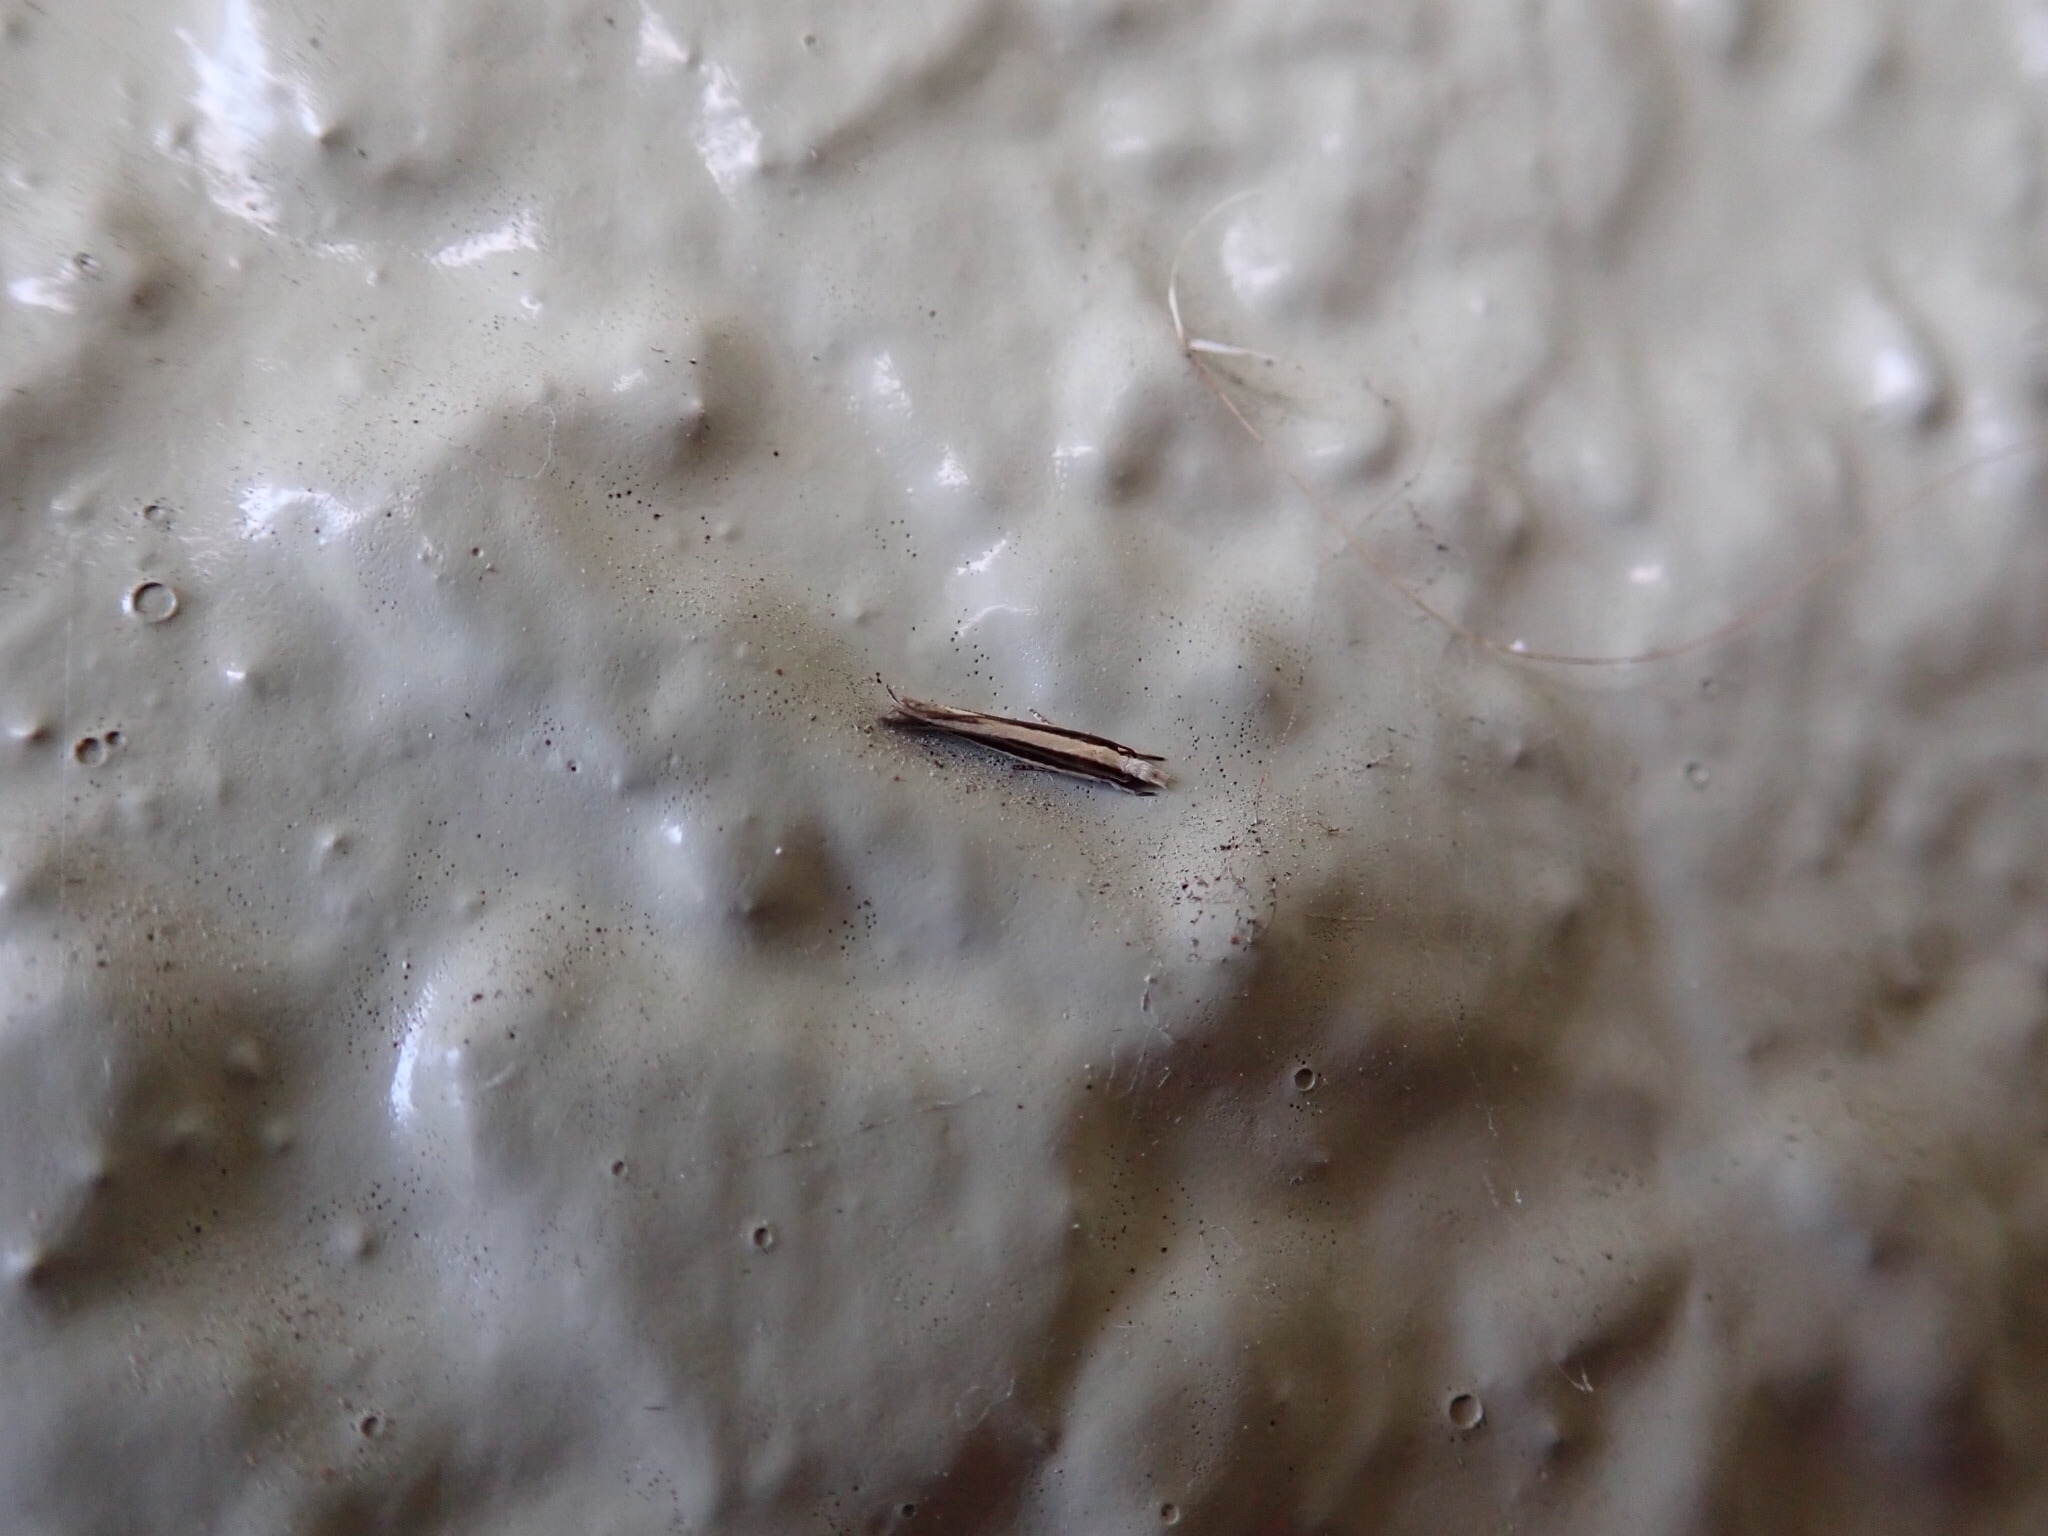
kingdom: Animalia
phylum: Arthropoda
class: Insecta
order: Lepidoptera
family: Tineidae
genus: Erechthias
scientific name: Erechthias stilbella
